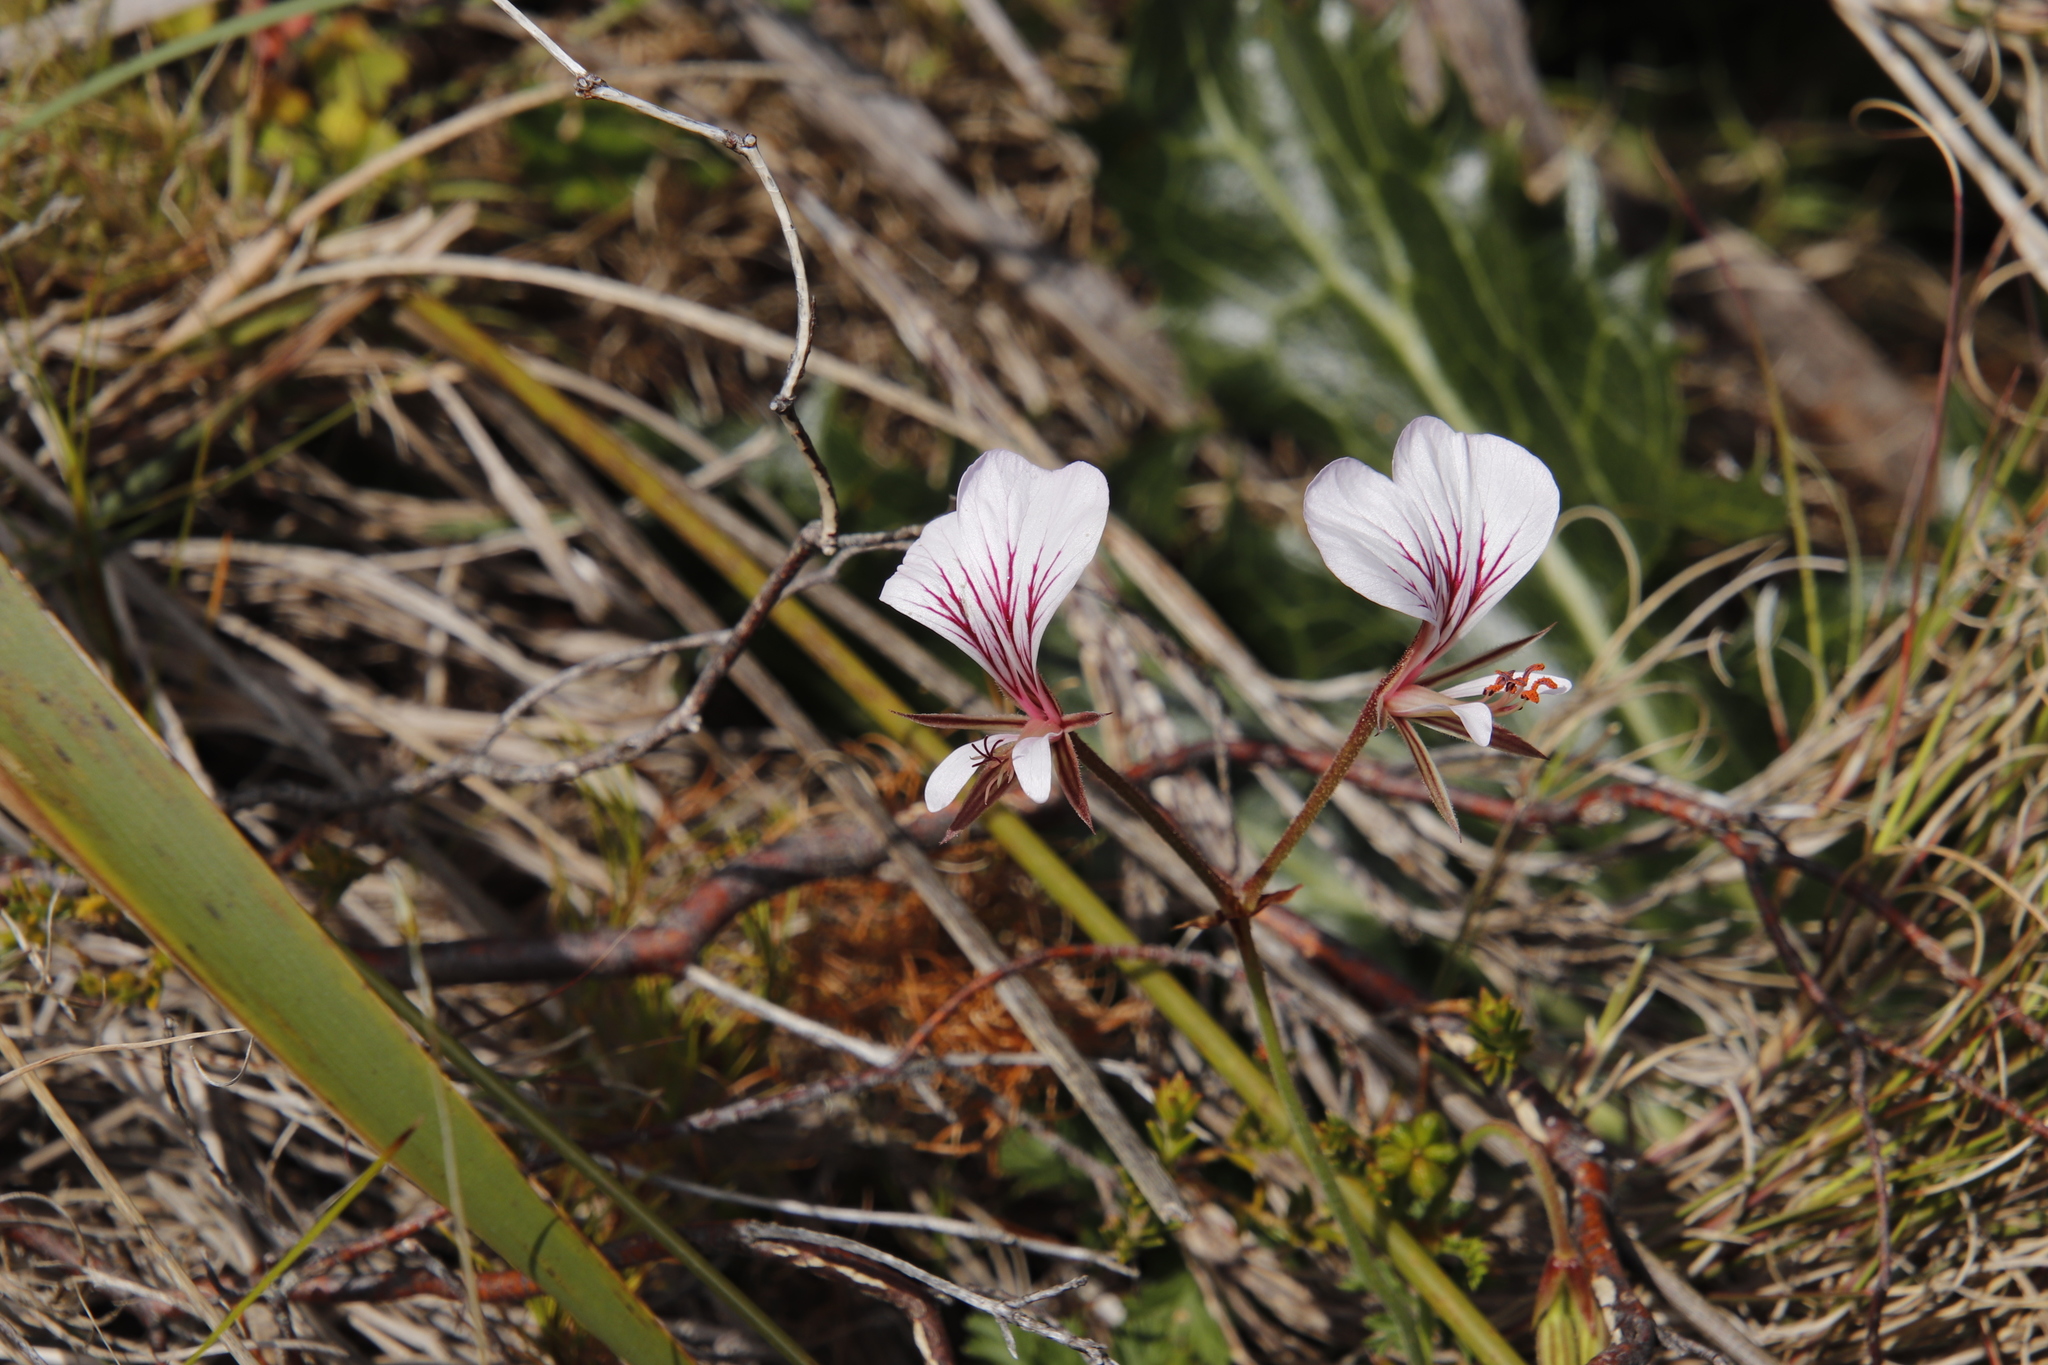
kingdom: Plantae
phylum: Tracheophyta
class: Magnoliopsida
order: Geraniales
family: Geraniaceae
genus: Pelargonium
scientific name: Pelargonium longicaule
